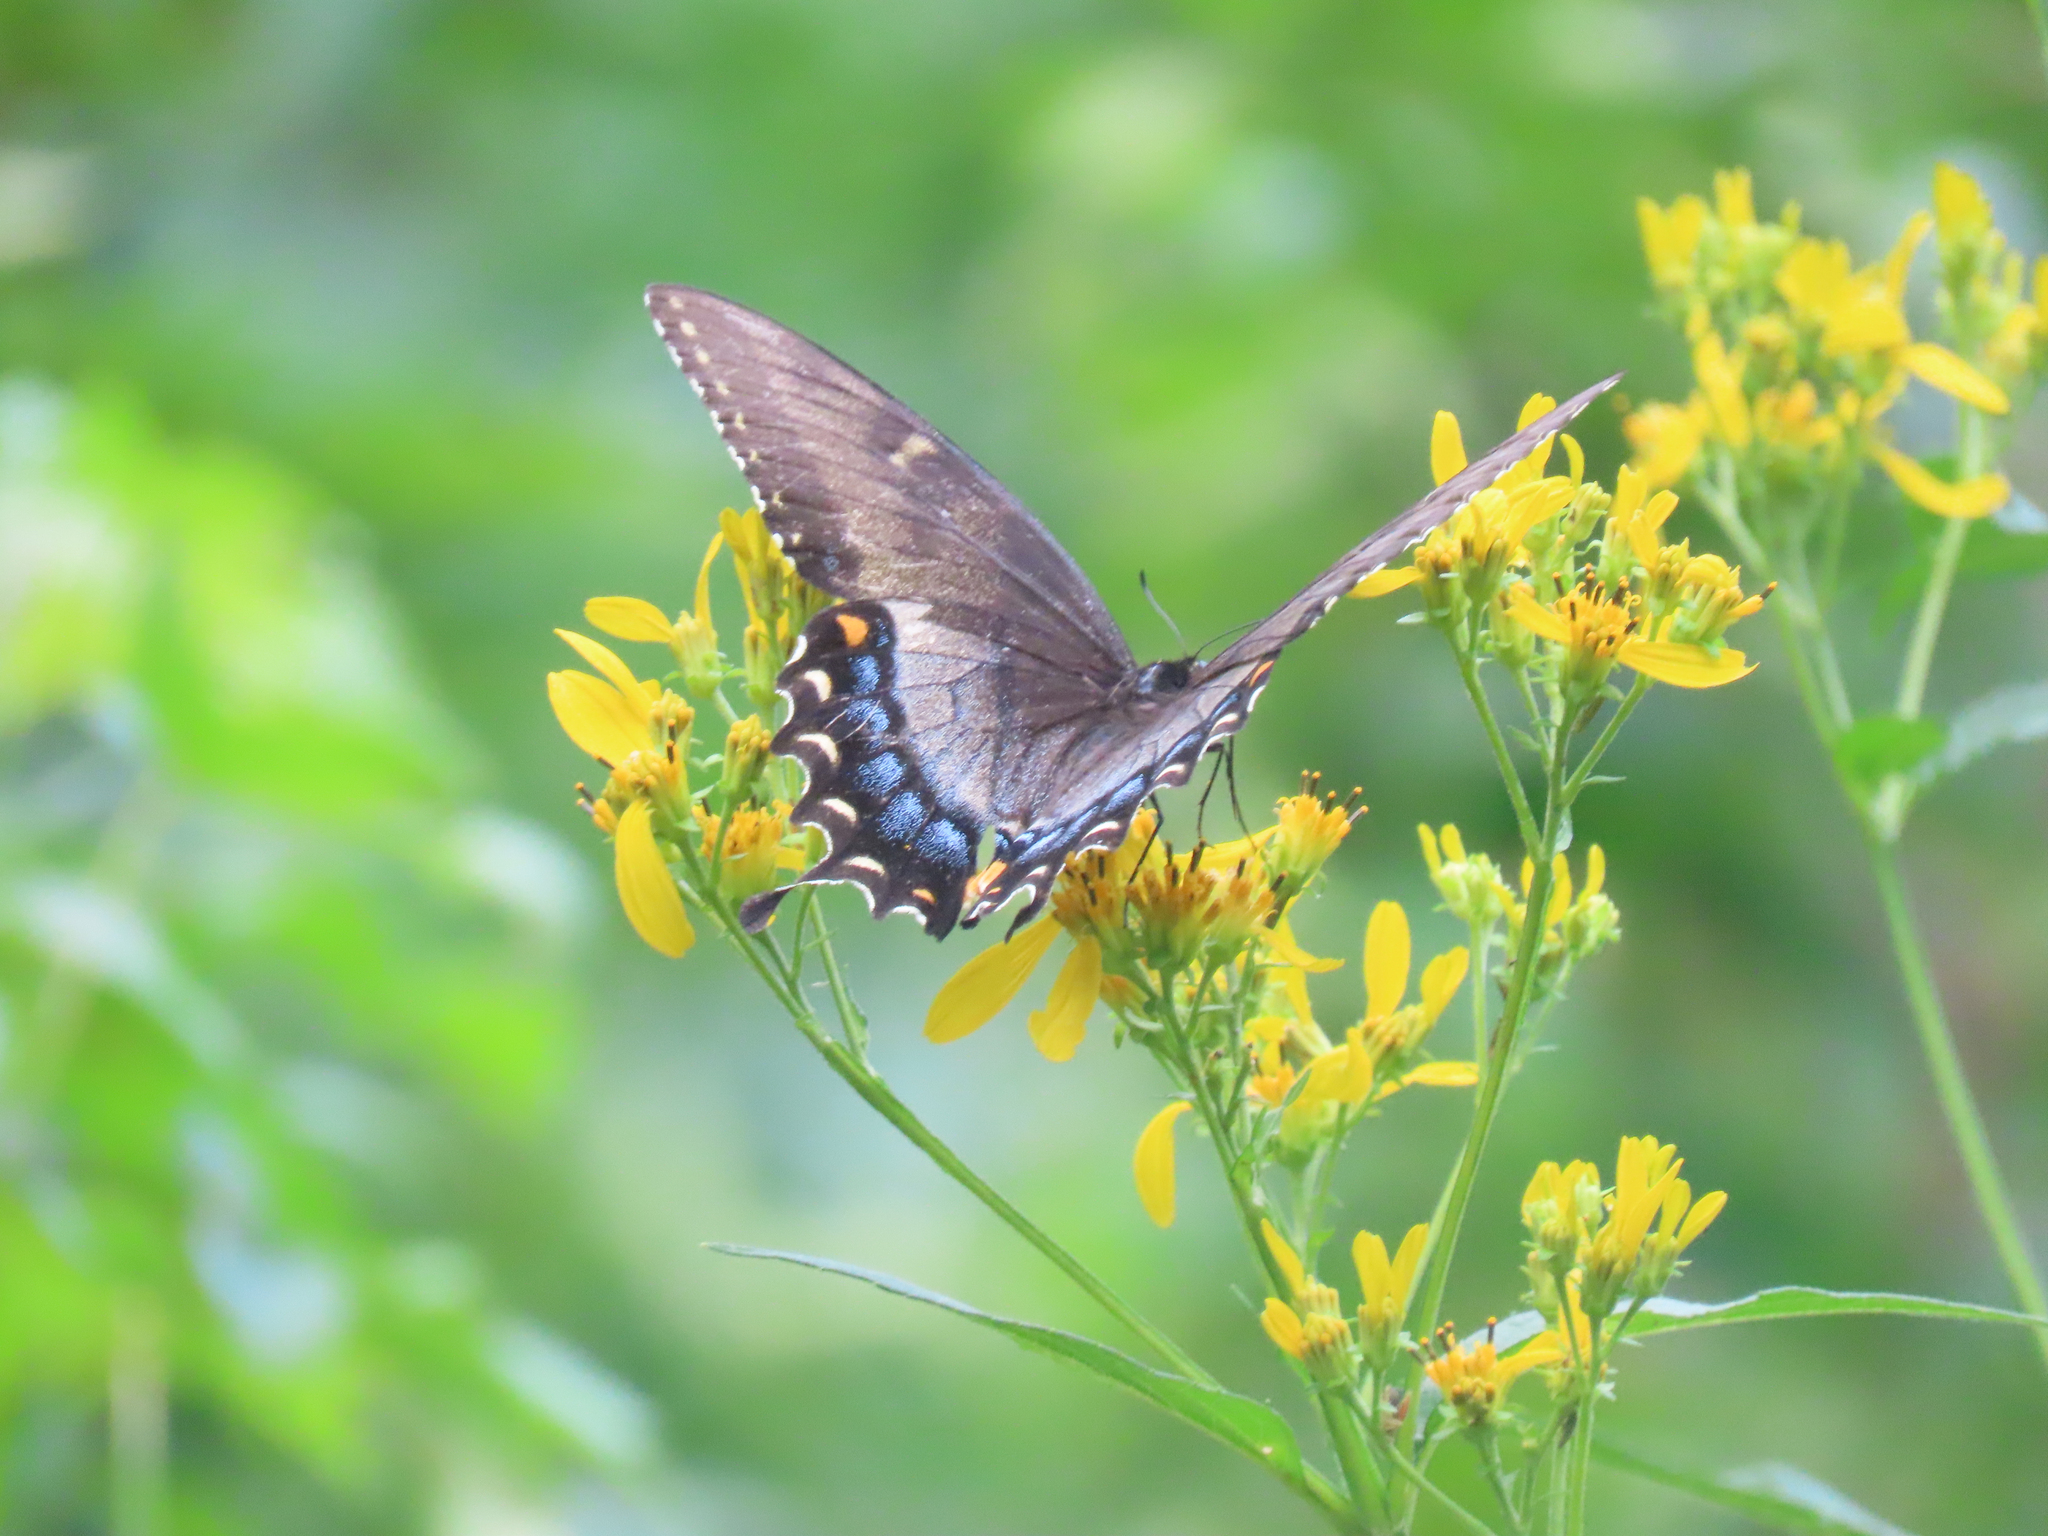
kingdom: Animalia
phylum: Arthropoda
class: Insecta
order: Lepidoptera
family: Papilionidae
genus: Papilio
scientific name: Papilio glaucus
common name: Tiger swallowtail
